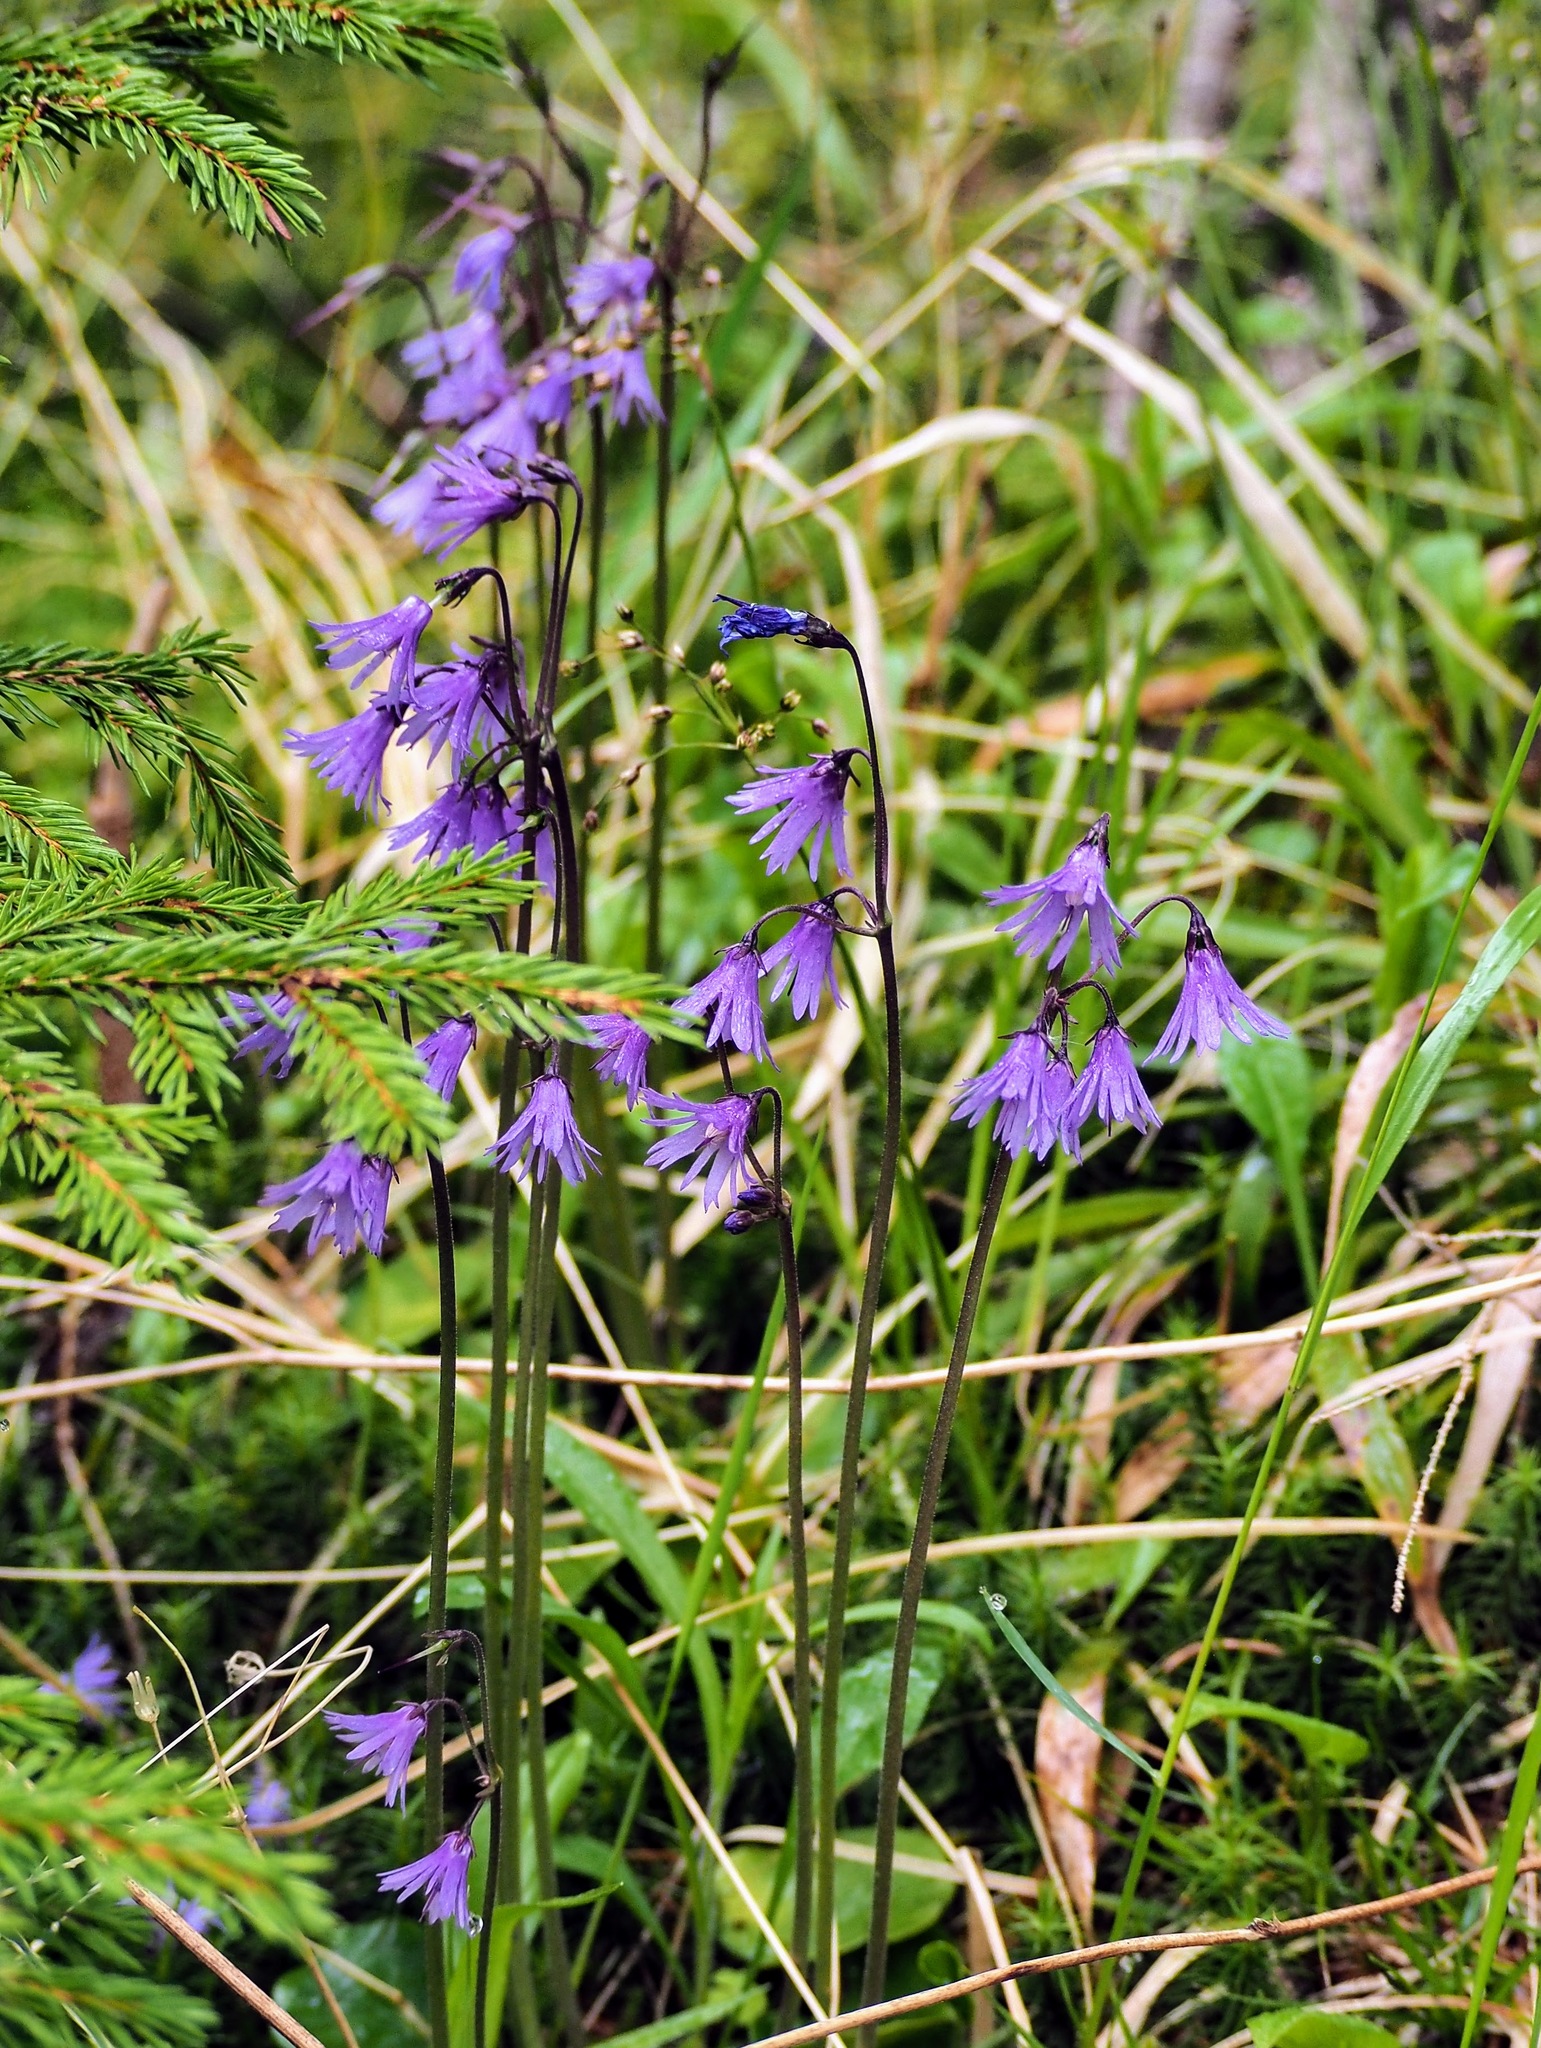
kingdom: Plantae
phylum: Tracheophyta
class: Magnoliopsida
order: Ericales
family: Primulaceae
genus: Soldanella
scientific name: Soldanella montana
